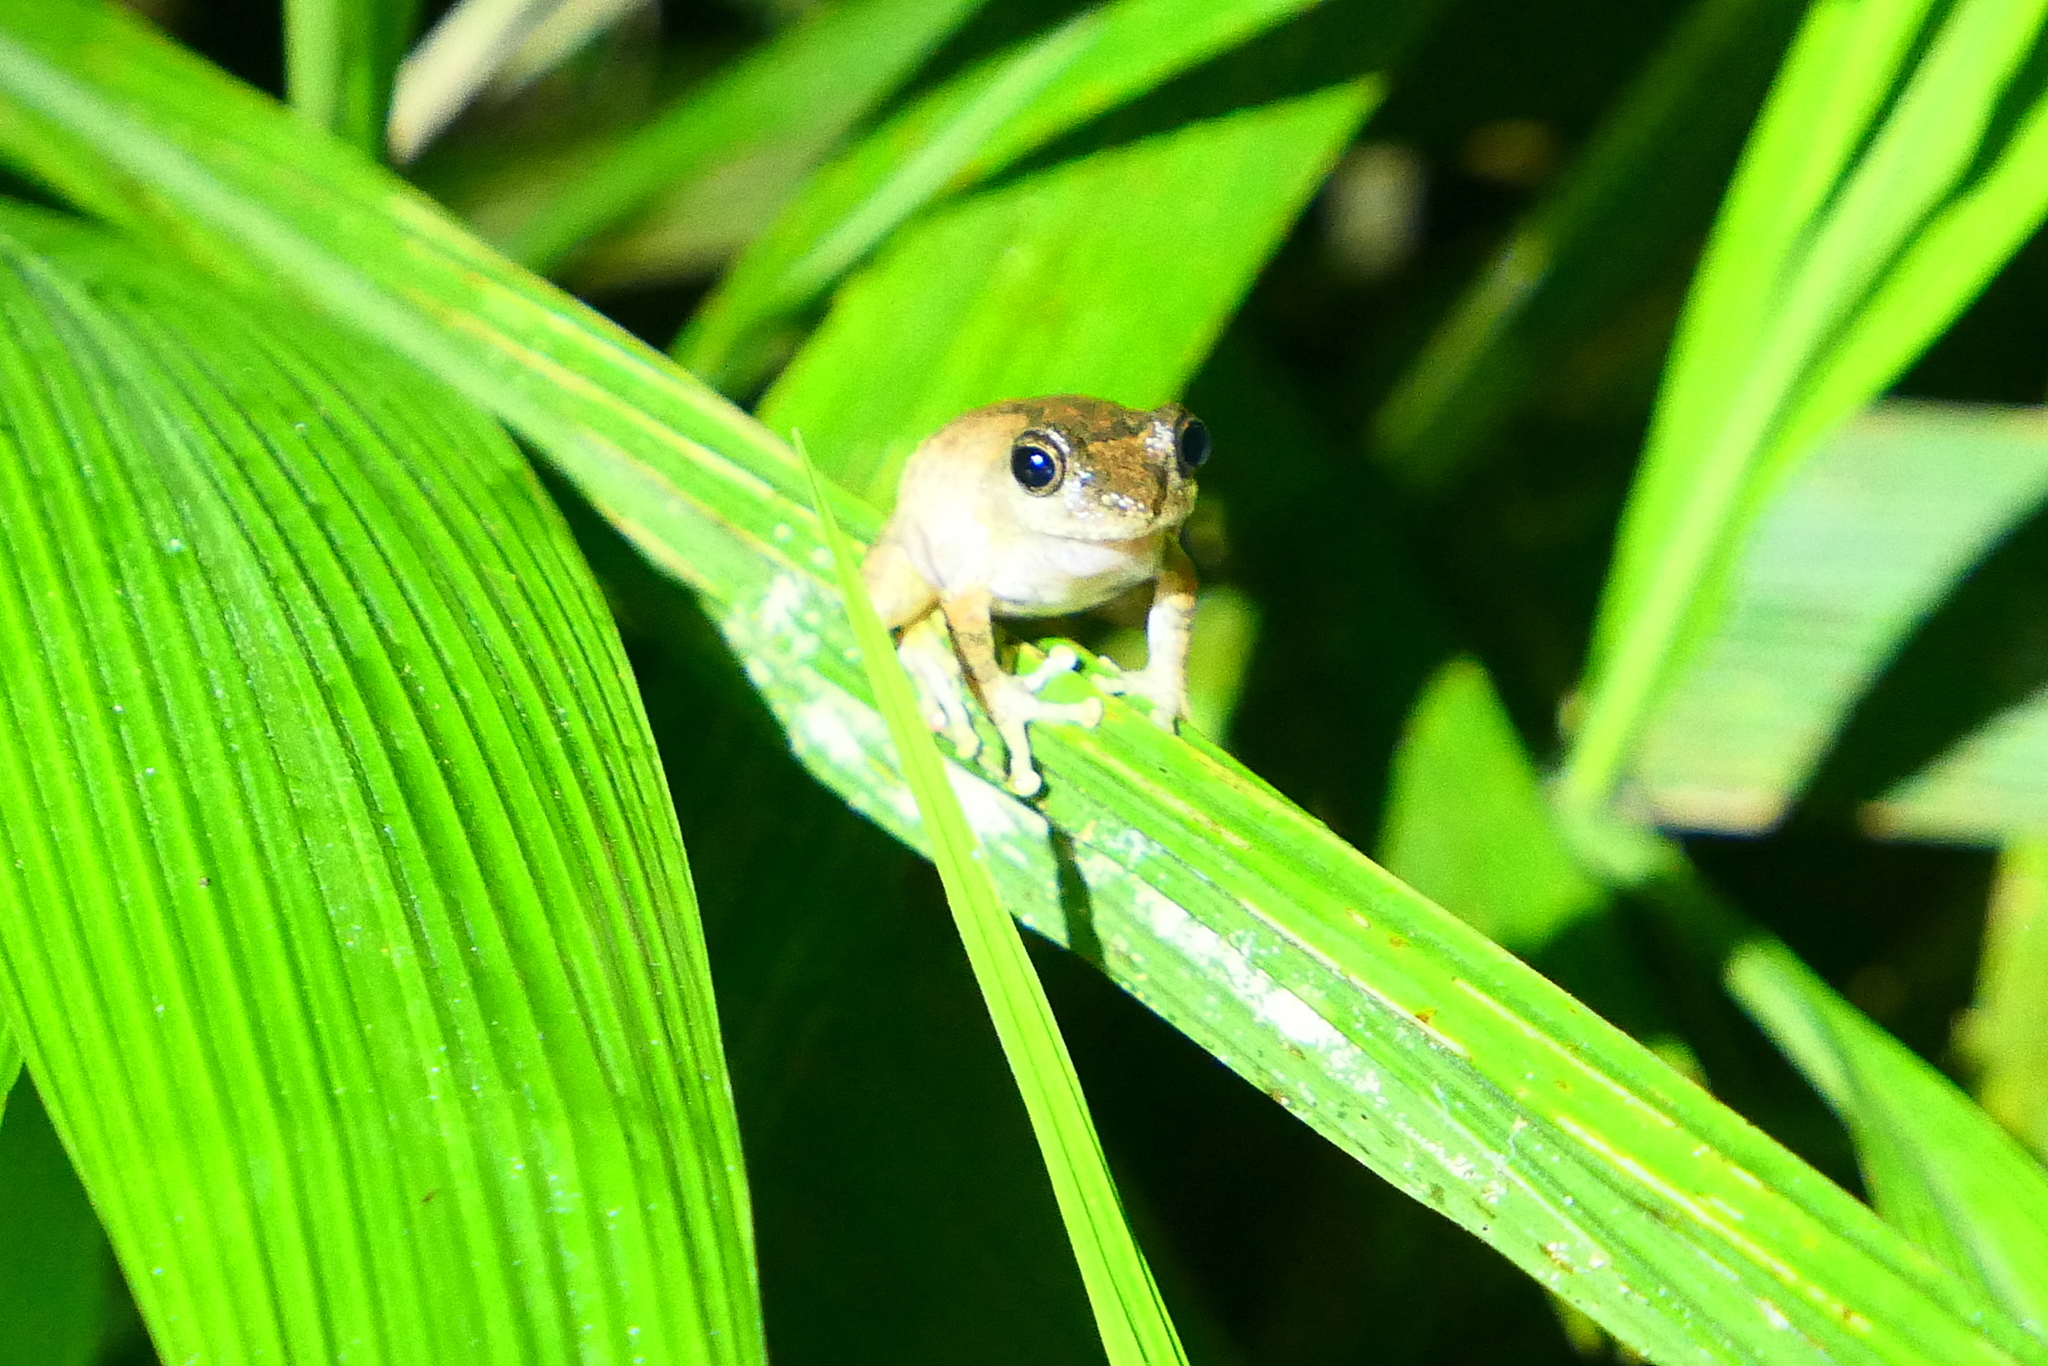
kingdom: Animalia
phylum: Chordata
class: Amphibia
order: Anura
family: Rhacophoridae
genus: Kurixalus
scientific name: Kurixalus idiootocus
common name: Temple treefrog
